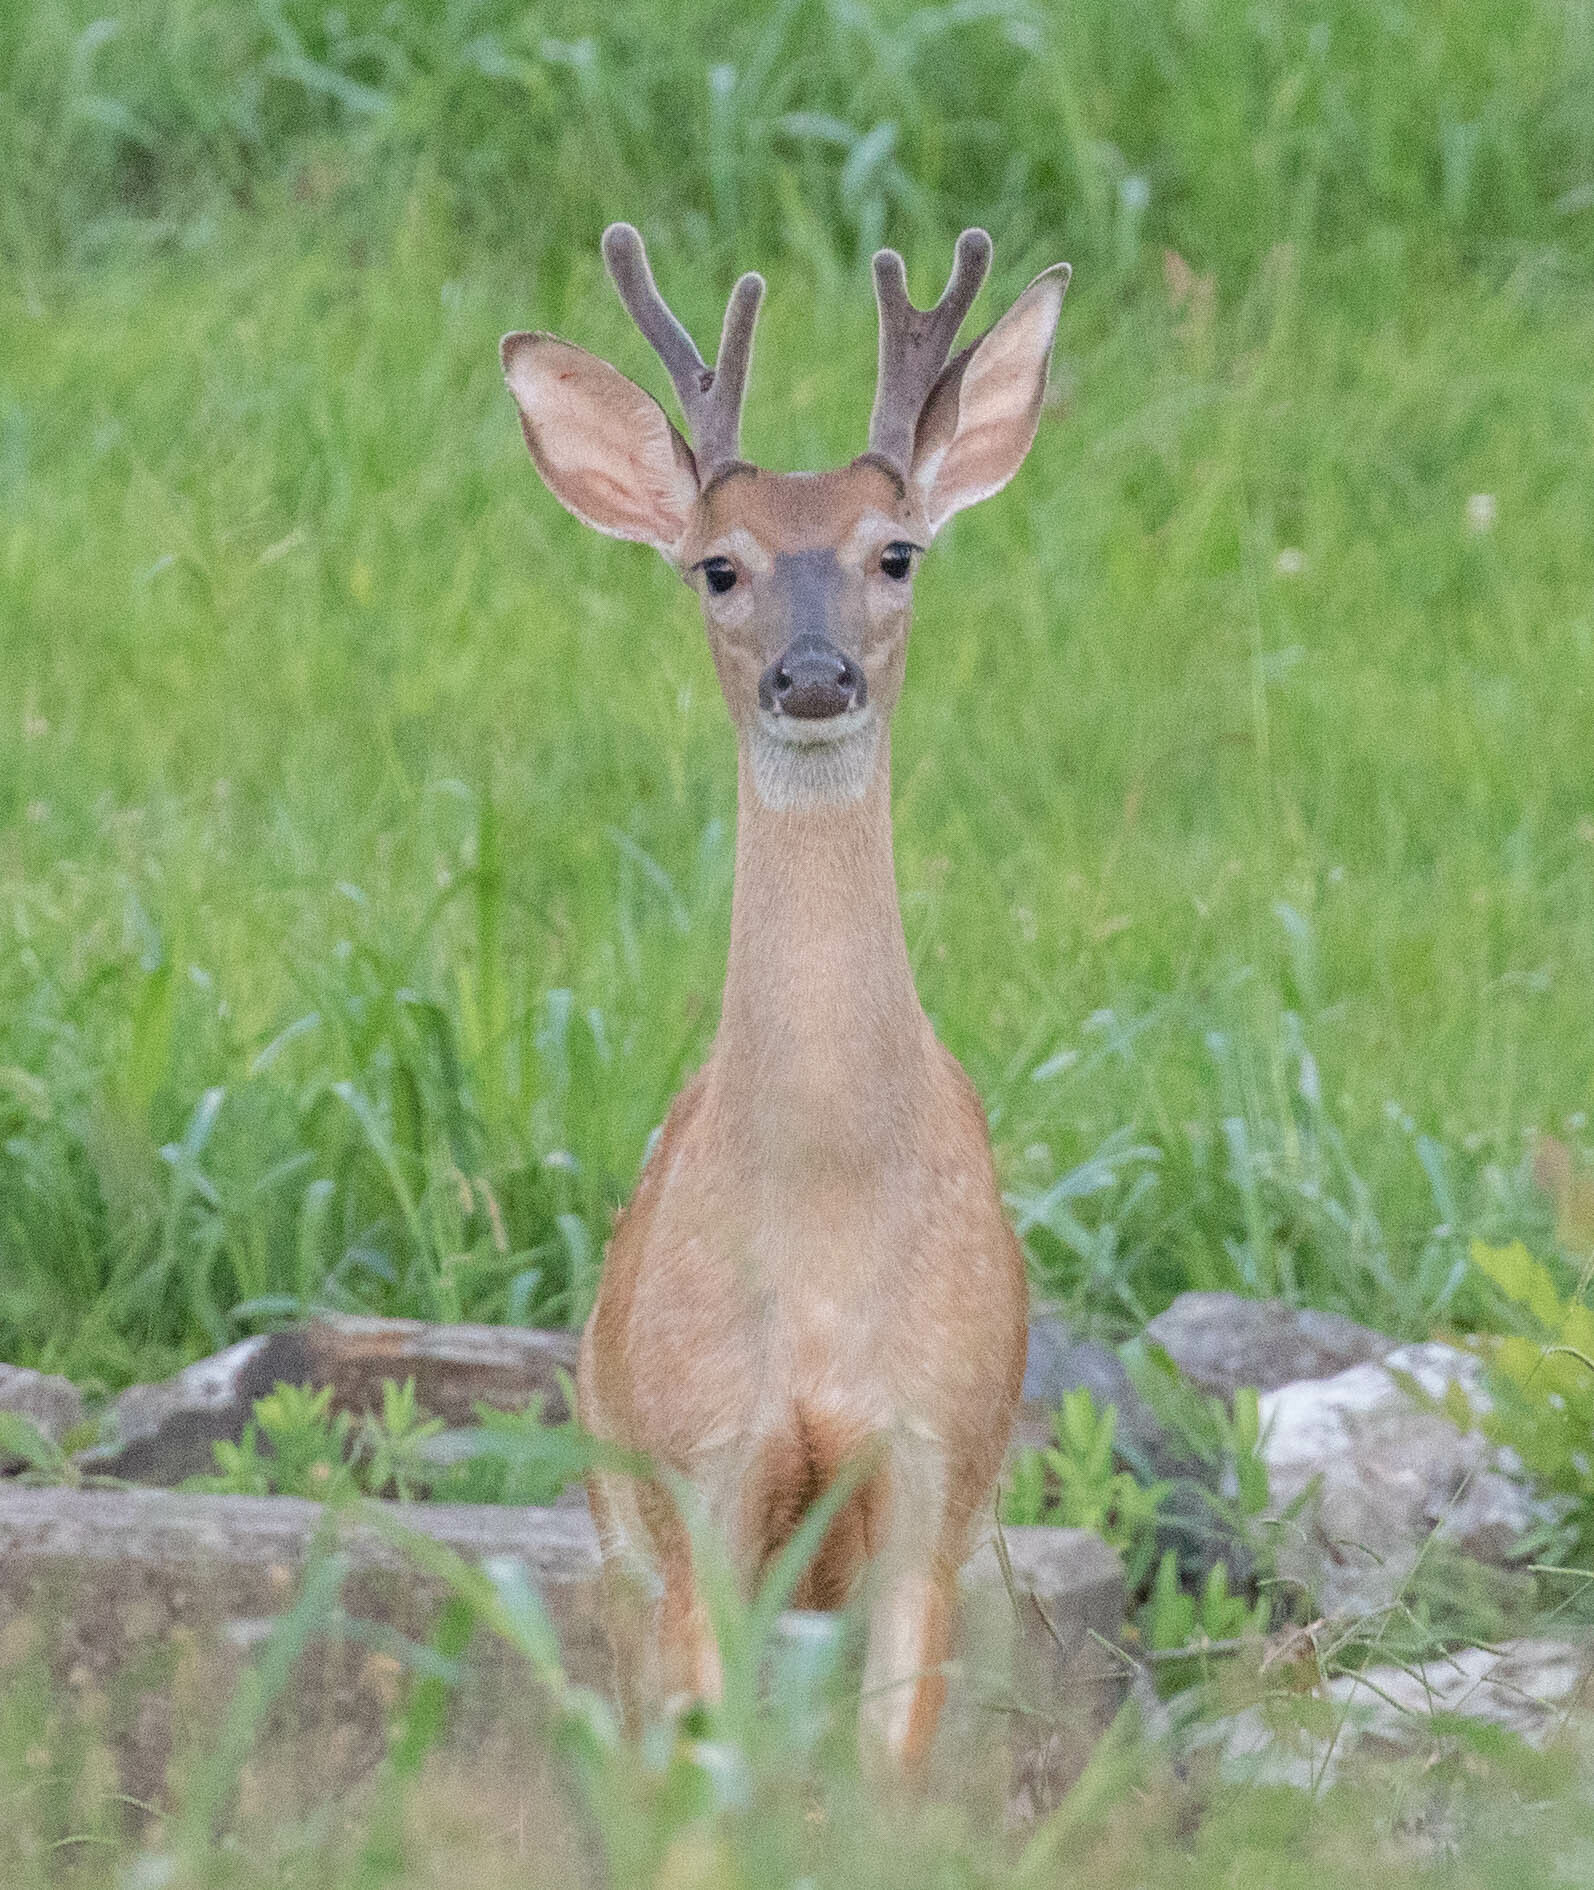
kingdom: Animalia
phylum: Chordata
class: Mammalia
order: Artiodactyla
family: Cervidae
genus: Odocoileus
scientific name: Odocoileus virginianus
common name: White-tailed deer
